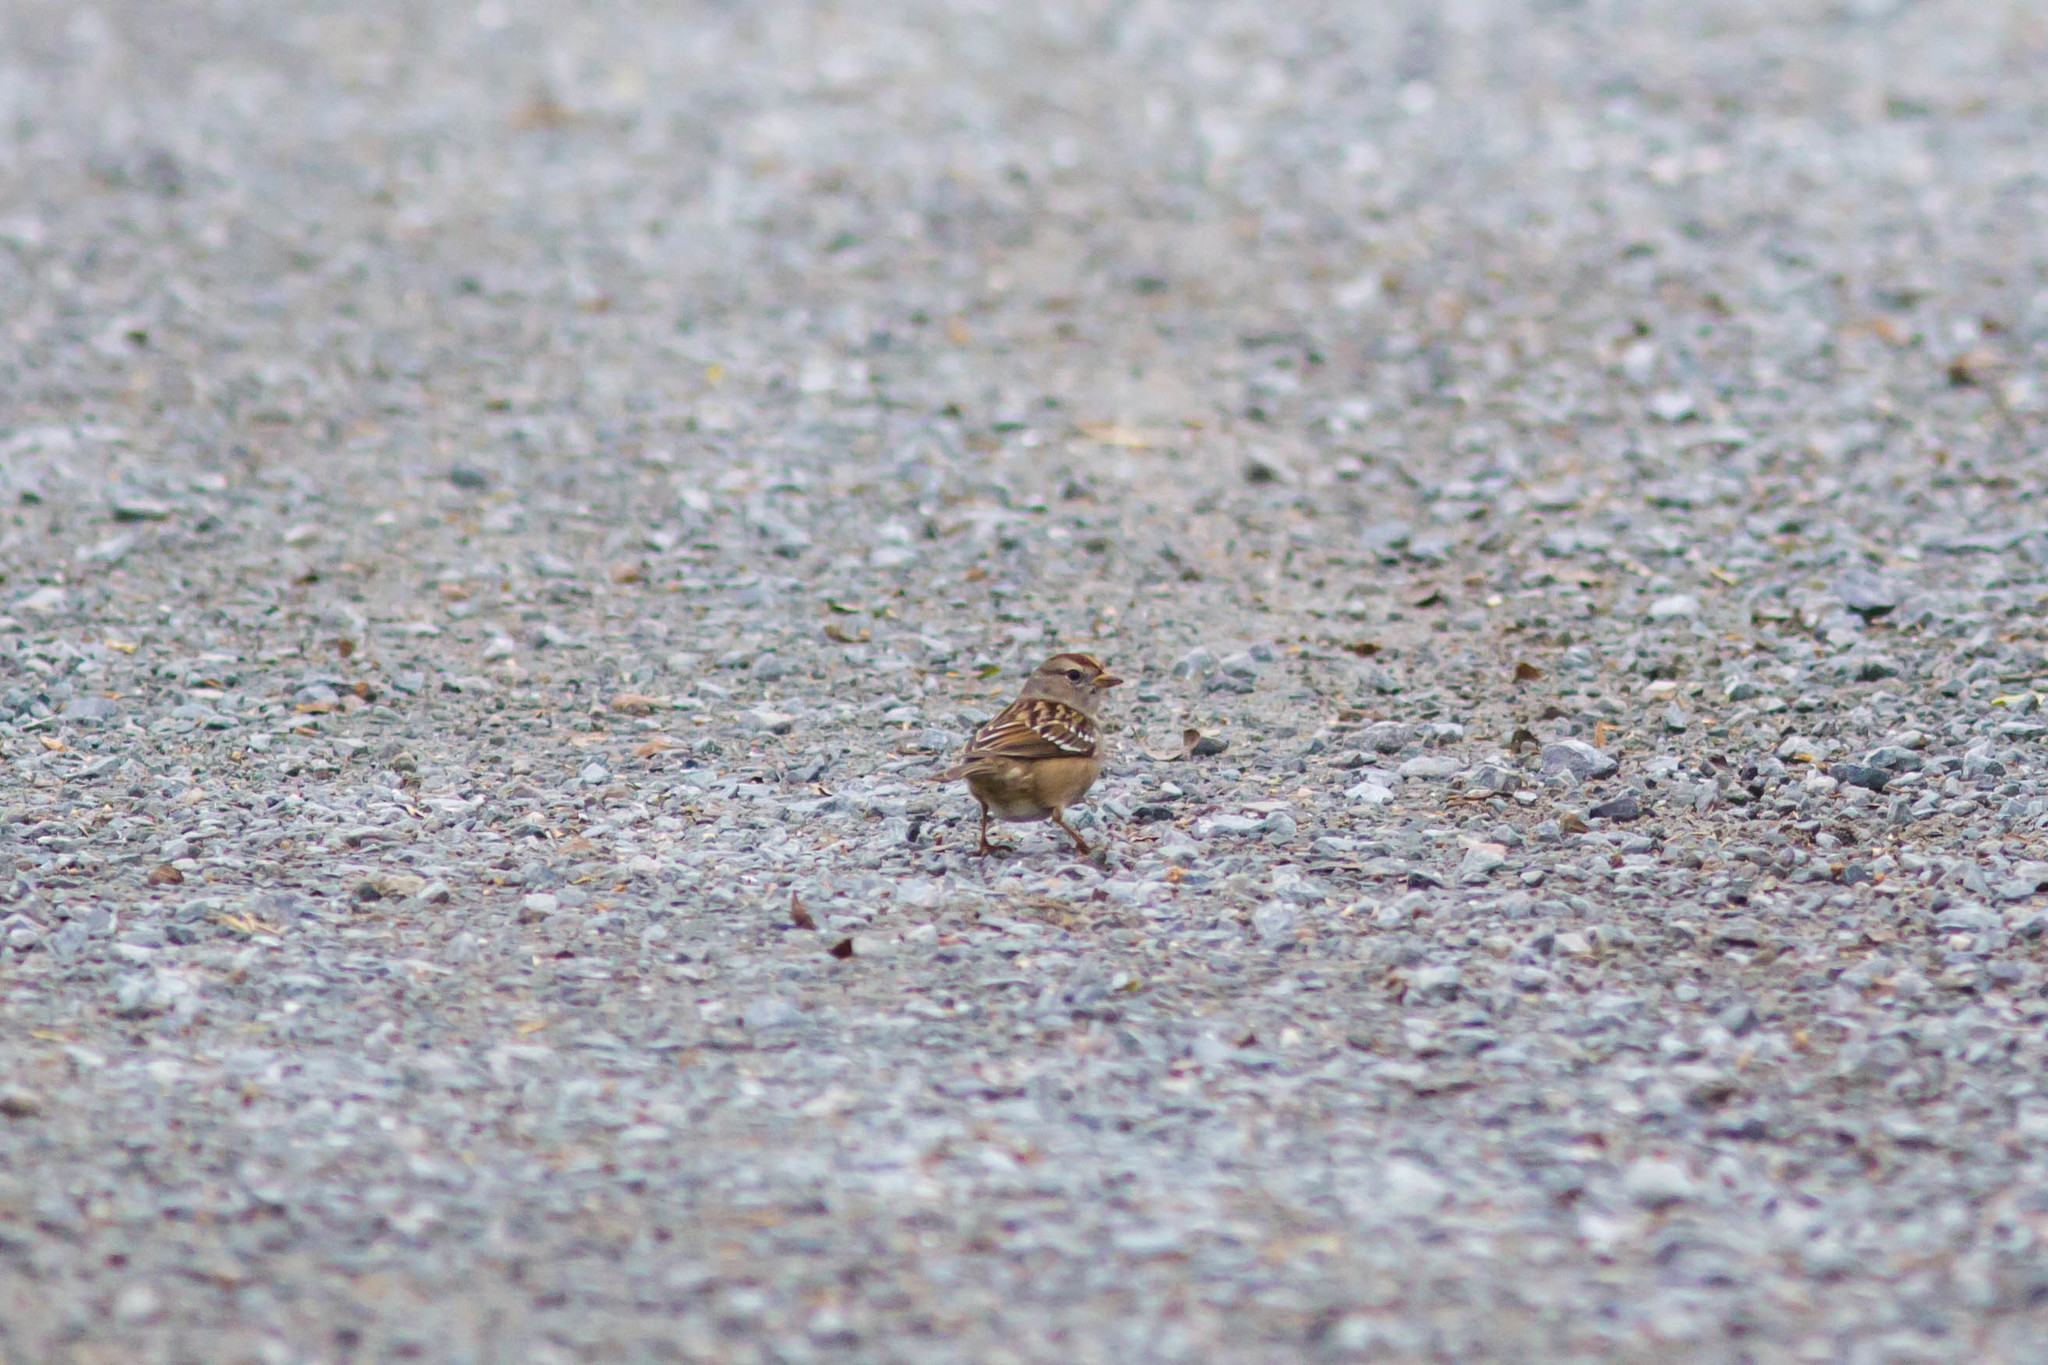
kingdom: Animalia
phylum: Chordata
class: Aves
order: Passeriformes
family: Passerellidae
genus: Zonotrichia
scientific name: Zonotrichia leucophrys
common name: White-crowned sparrow
